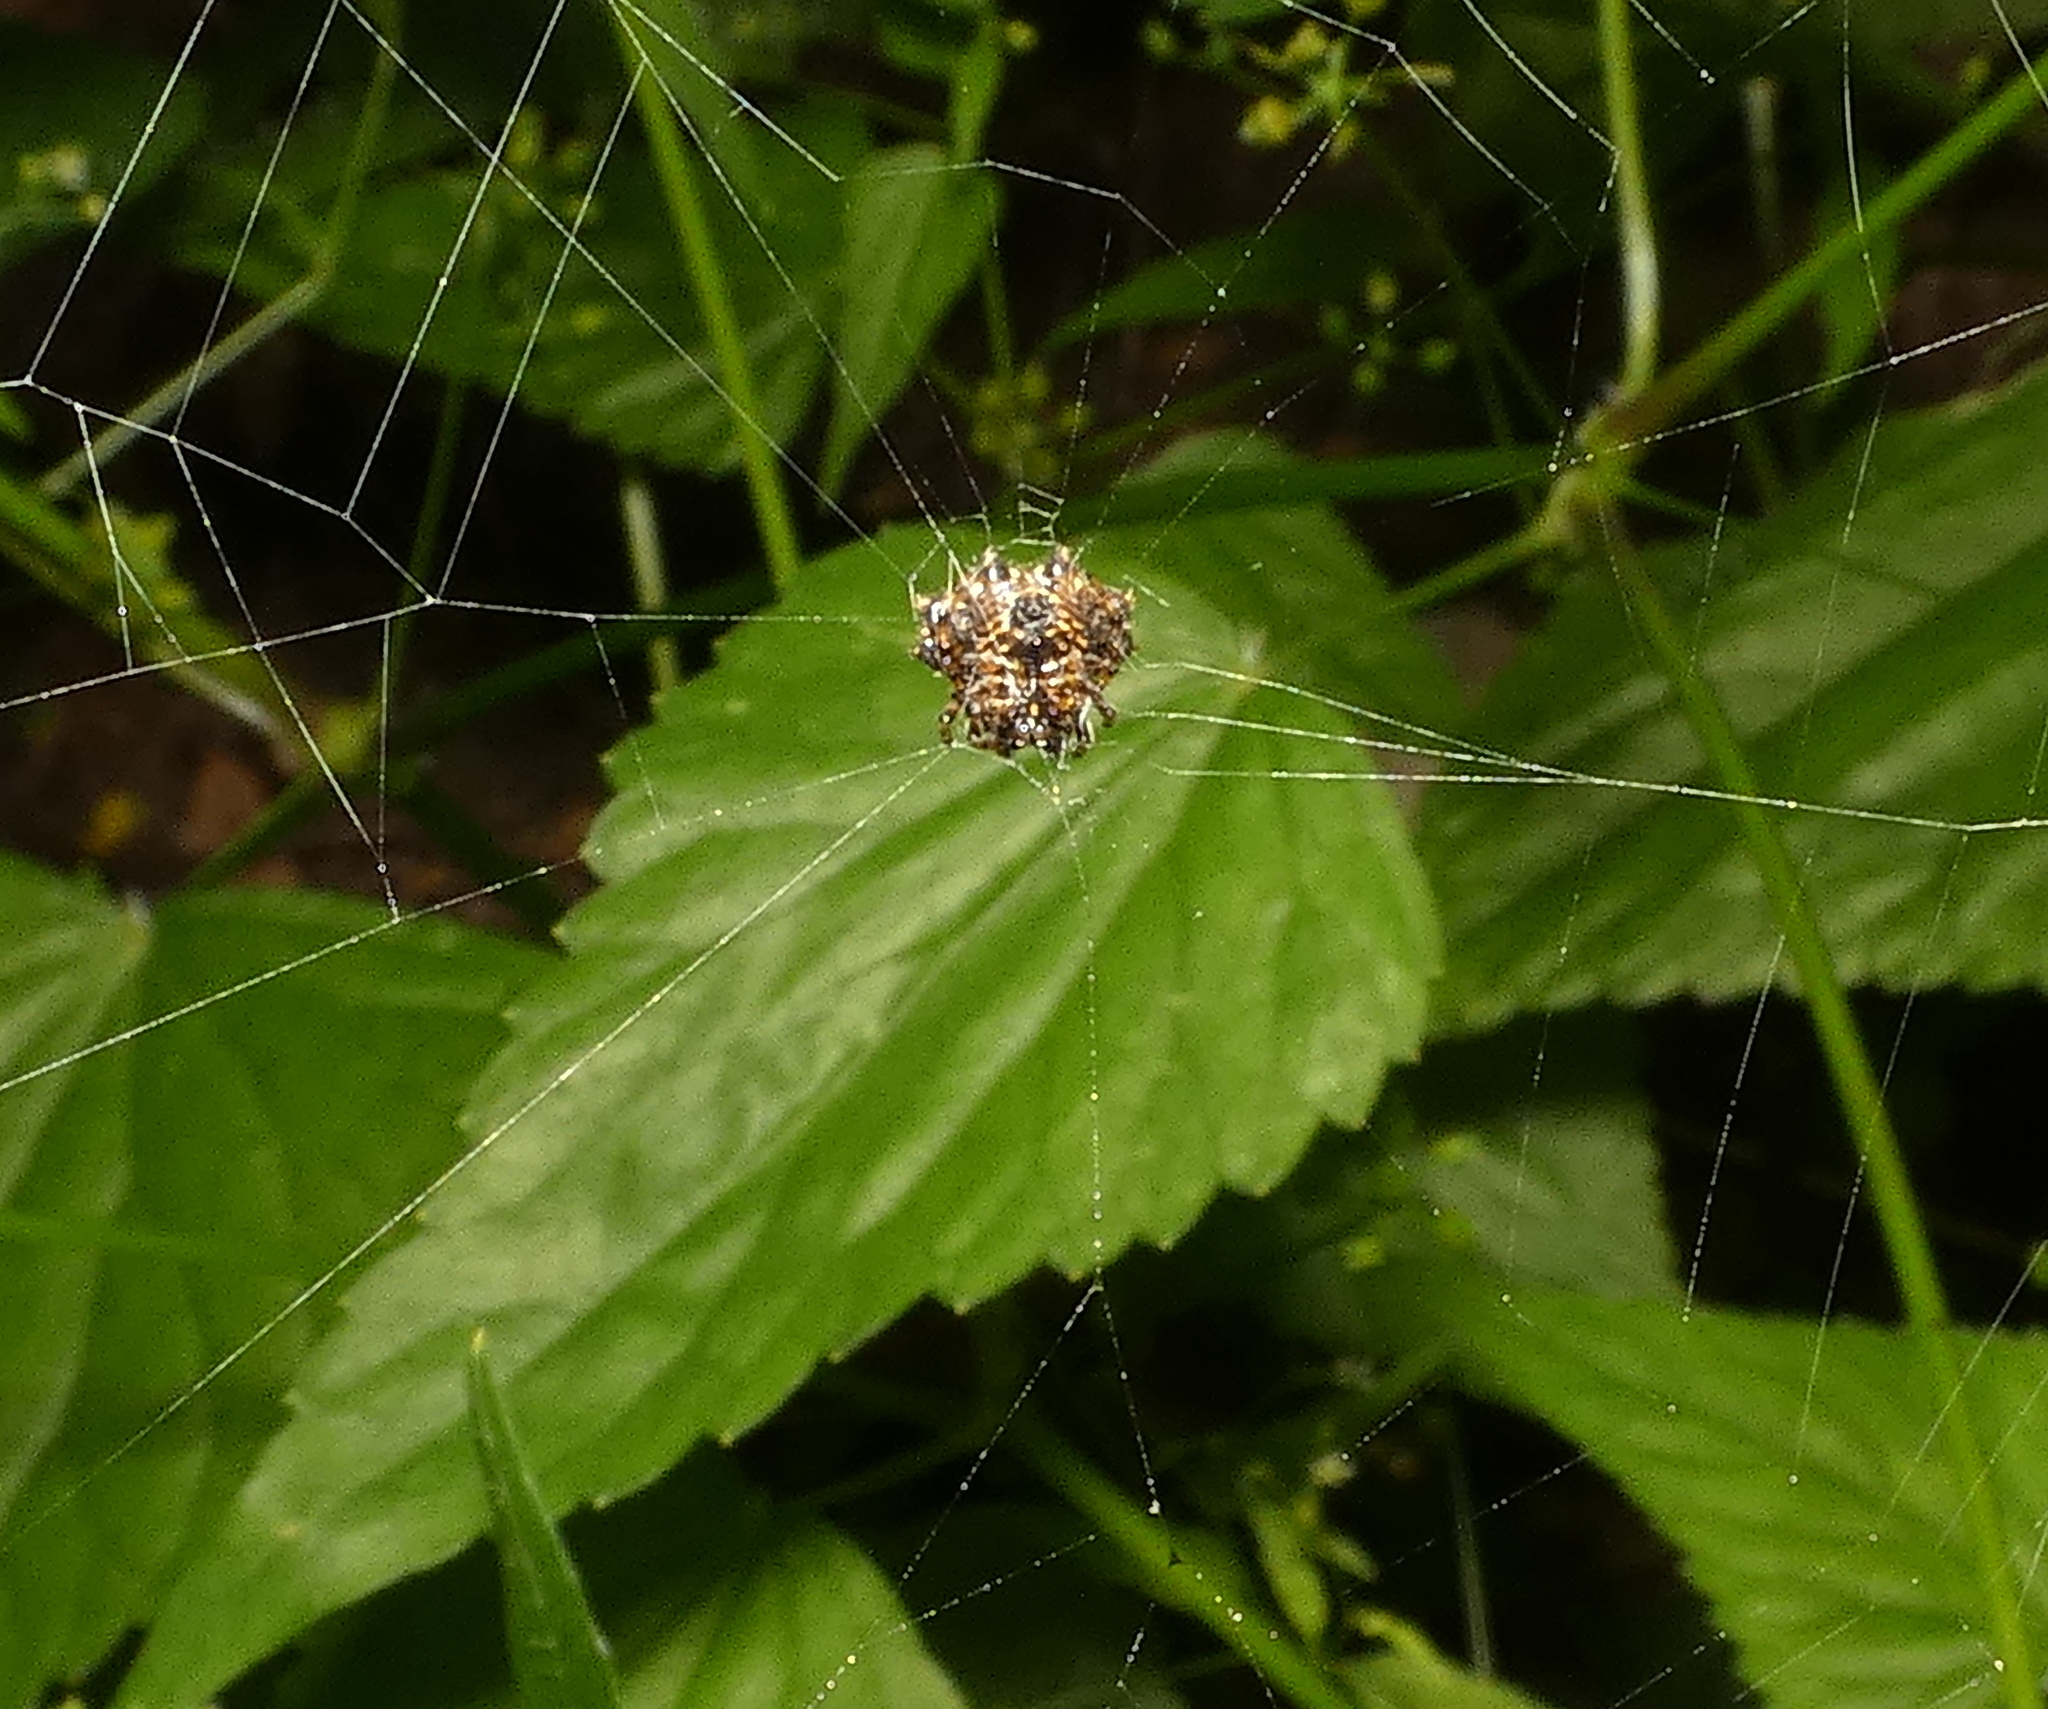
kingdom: Animalia
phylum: Arthropoda
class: Arachnida
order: Araneae
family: Araneidae
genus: Gasteracantha
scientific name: Gasteracantha cancriformis
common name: Orb weavers
